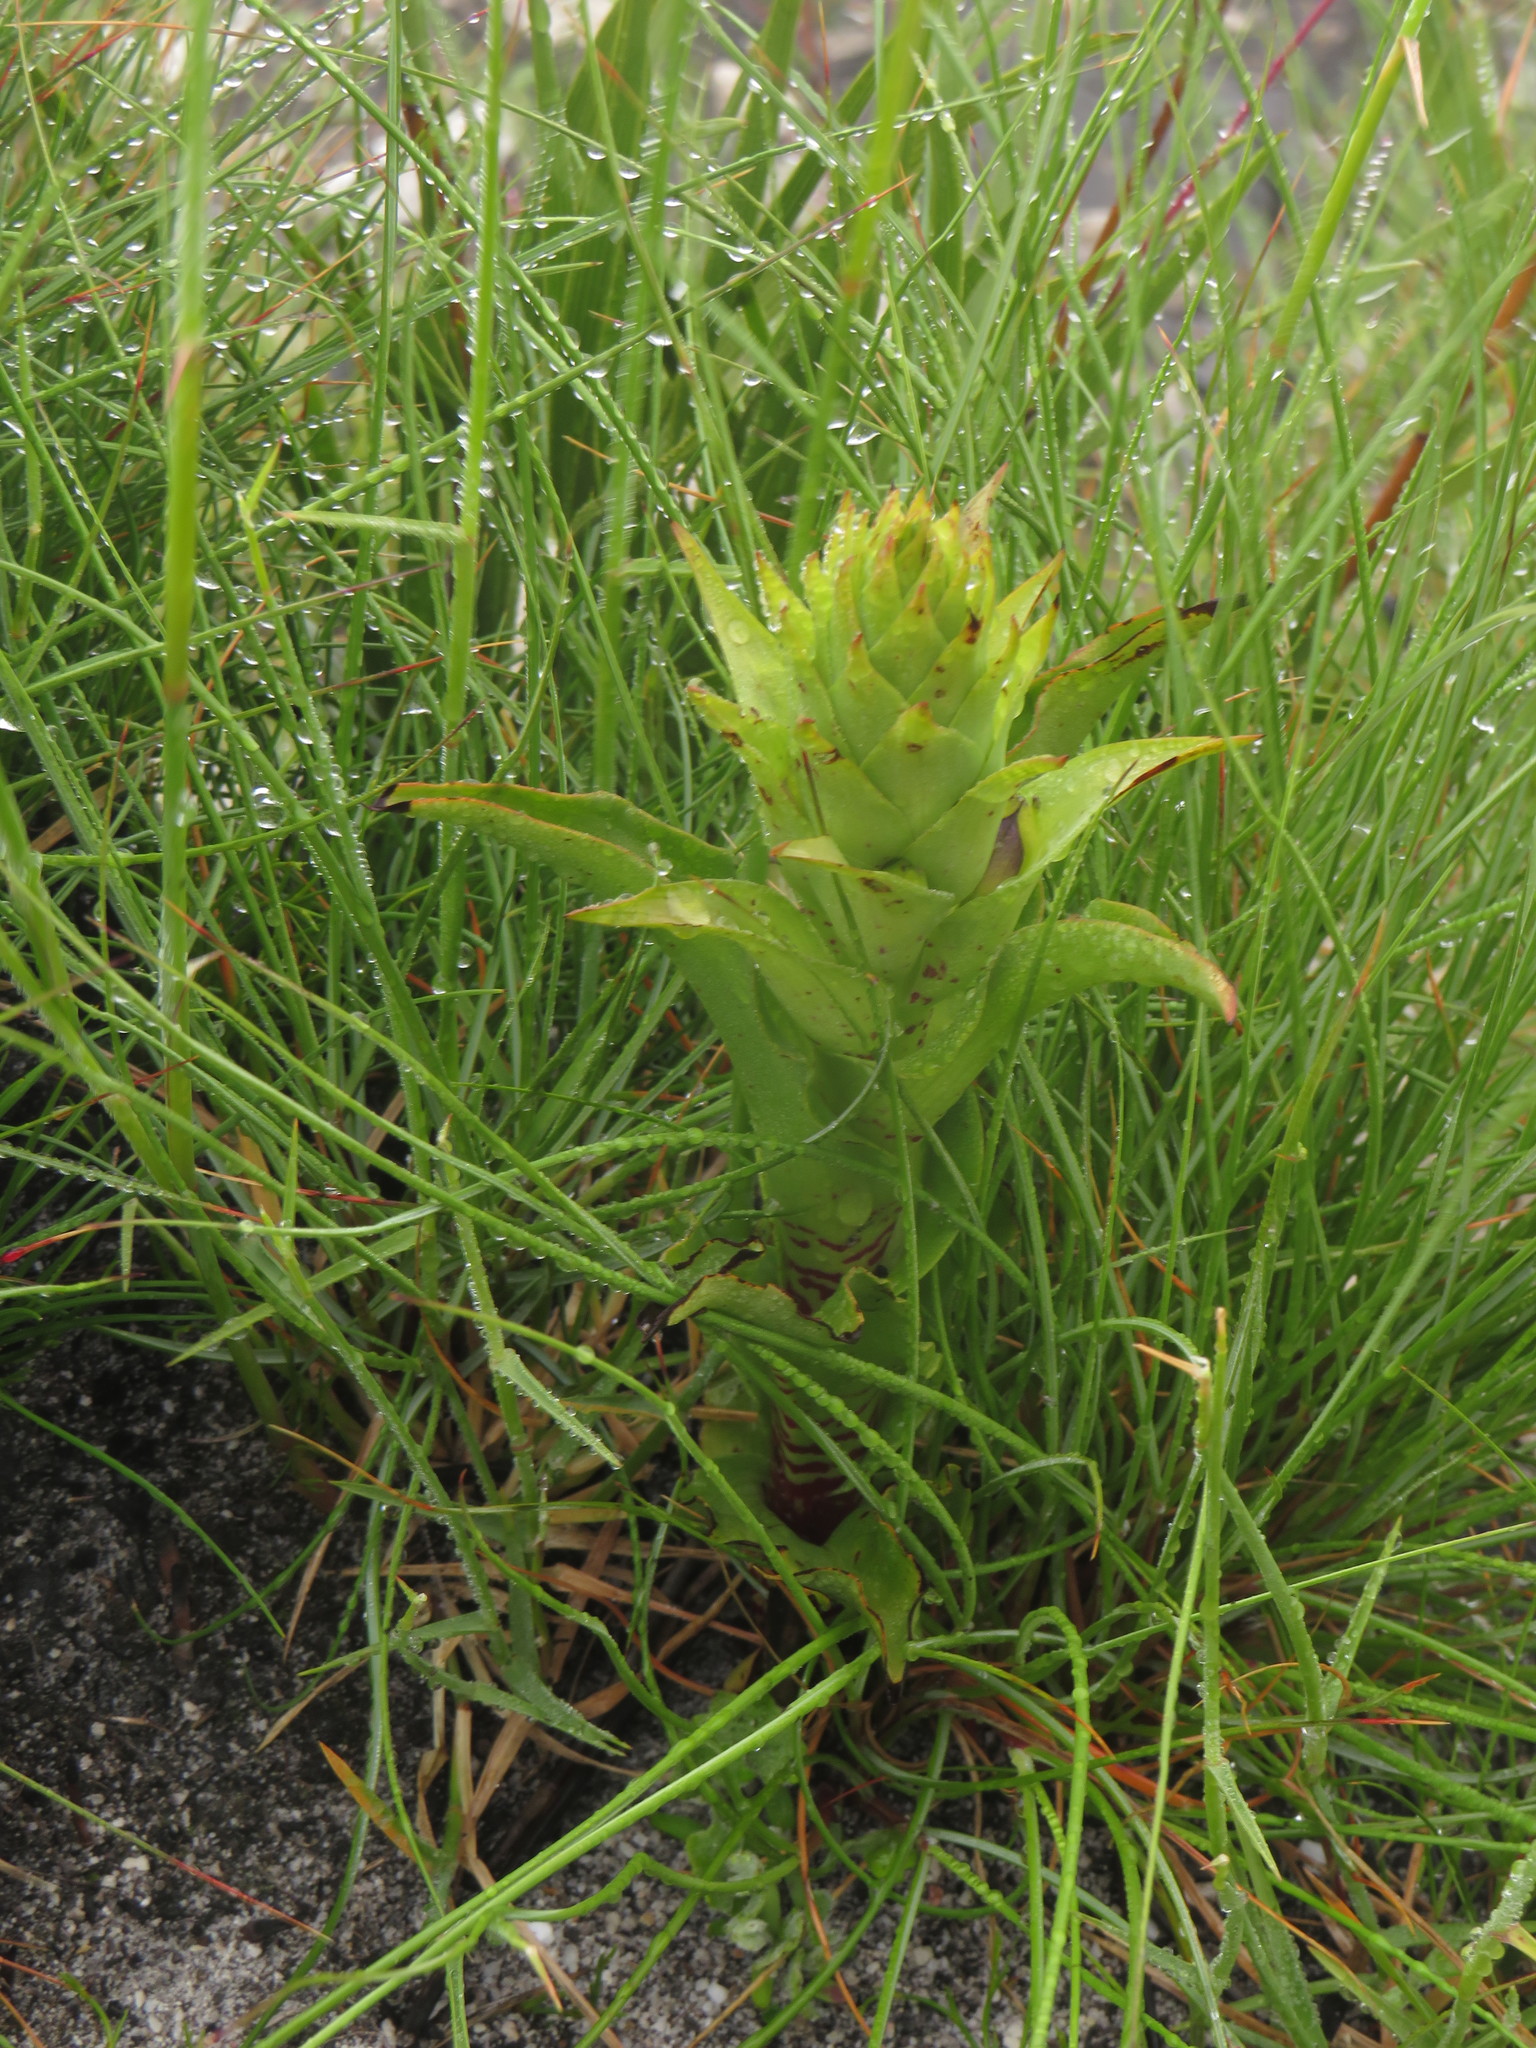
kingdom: Plantae
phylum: Tracheophyta
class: Liliopsida
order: Asparagales
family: Orchidaceae
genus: Disa
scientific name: Disa cornuta
